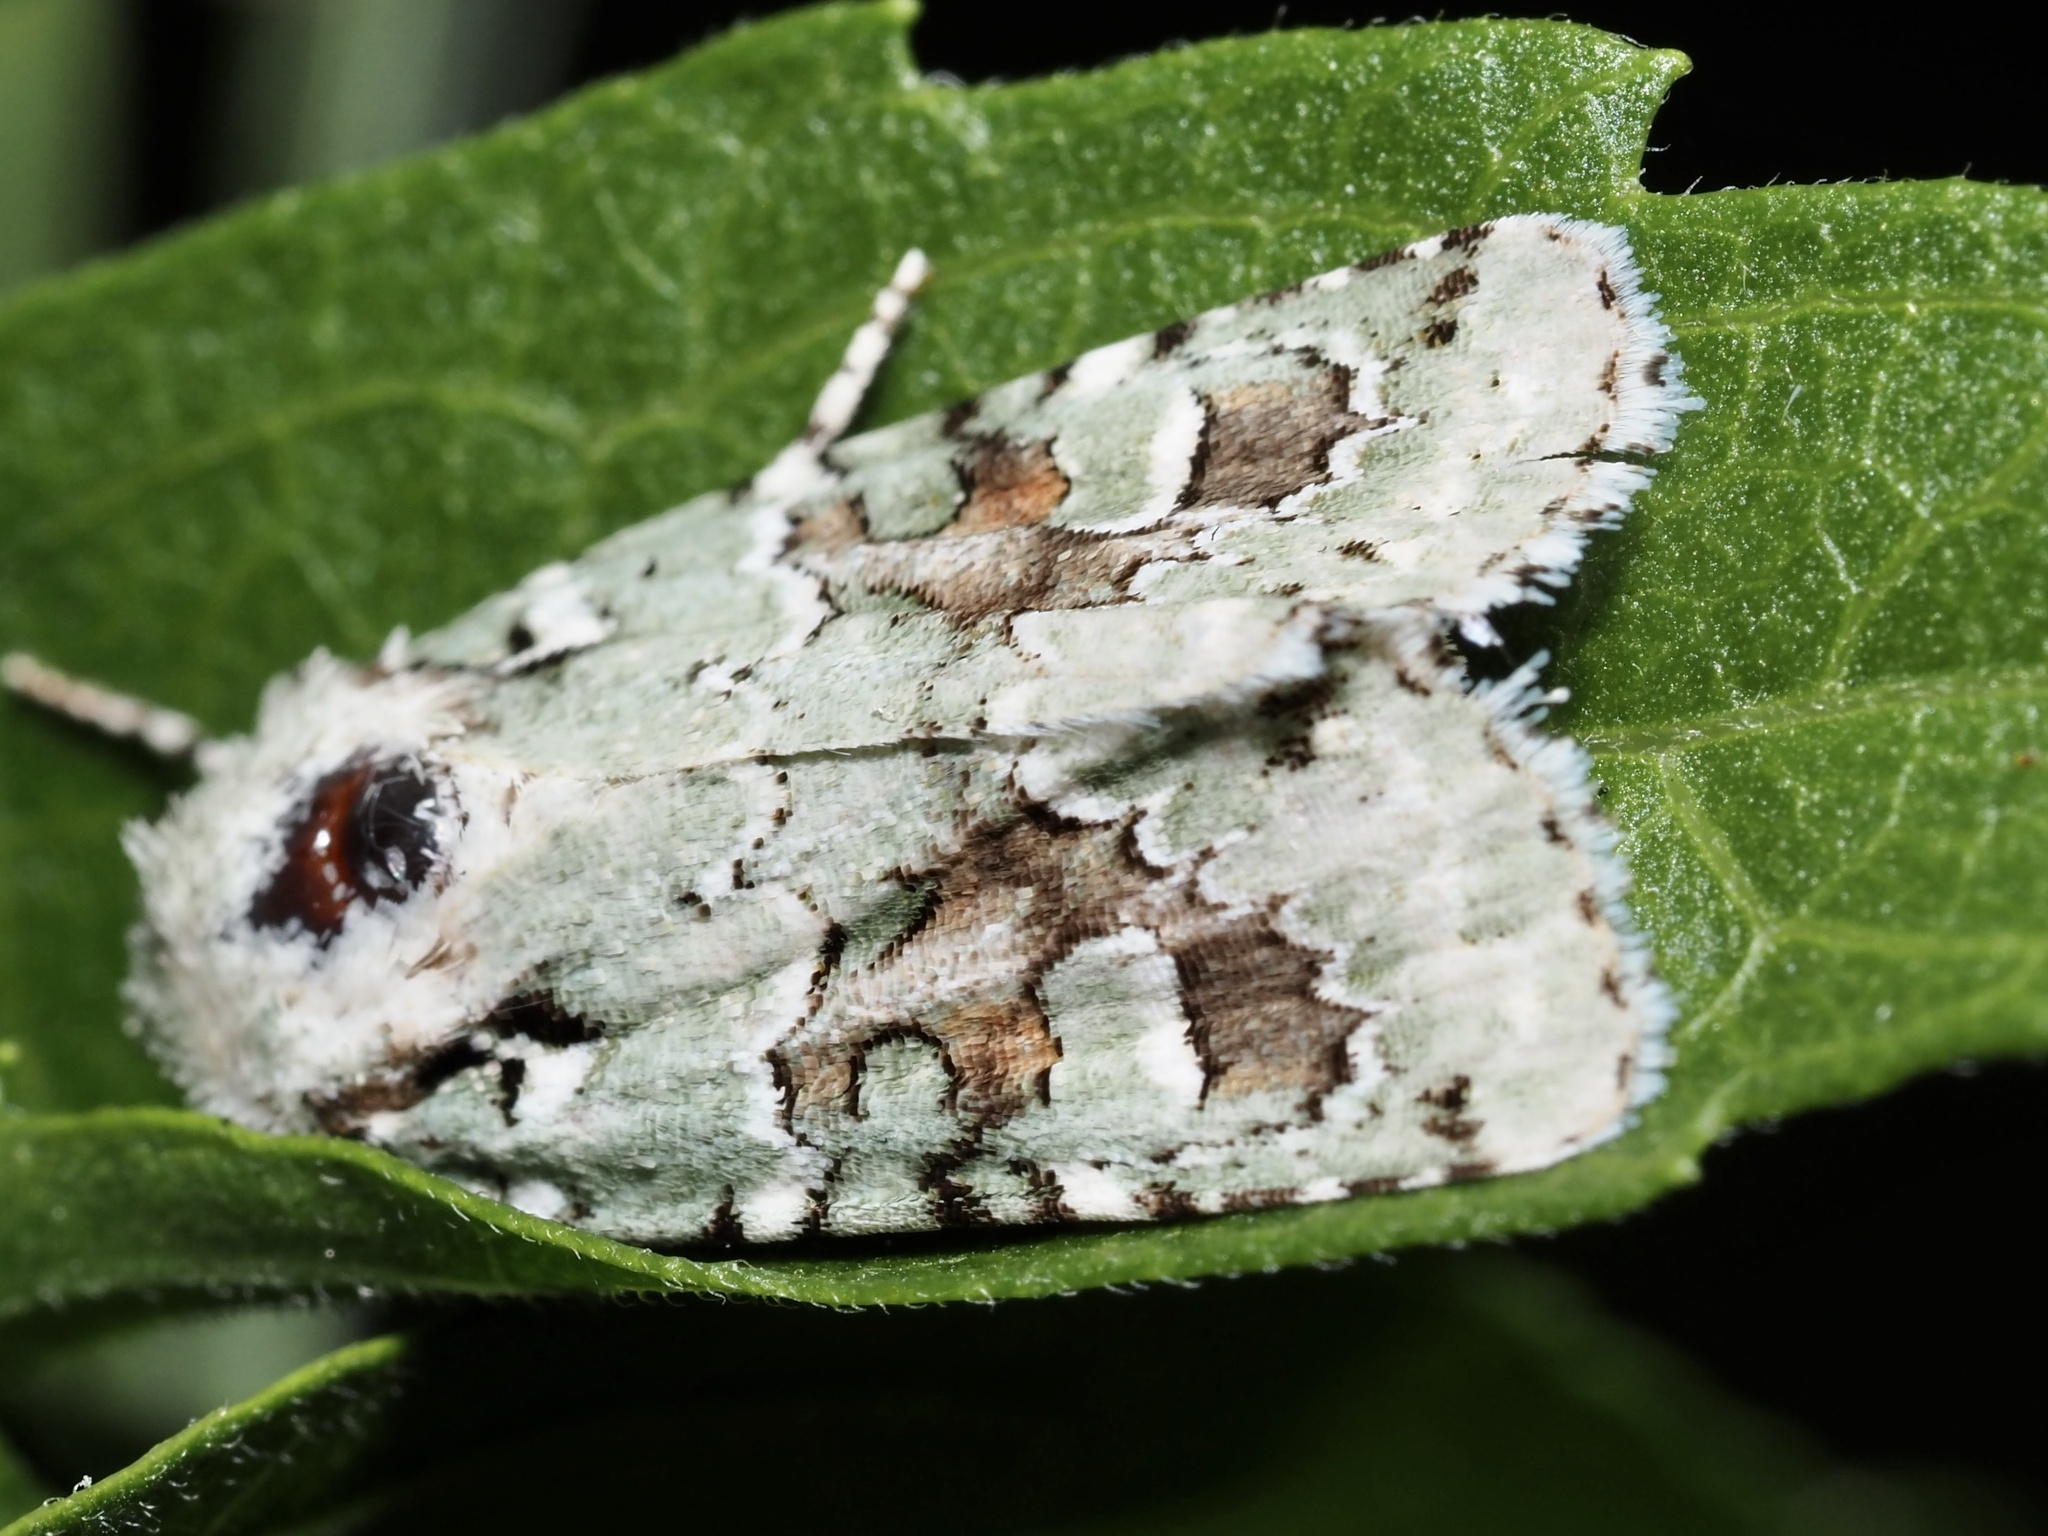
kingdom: Animalia
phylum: Arthropoda
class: Insecta
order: Lepidoptera
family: Noctuidae
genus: Lacinipolia
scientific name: Lacinipolia laudabilis
